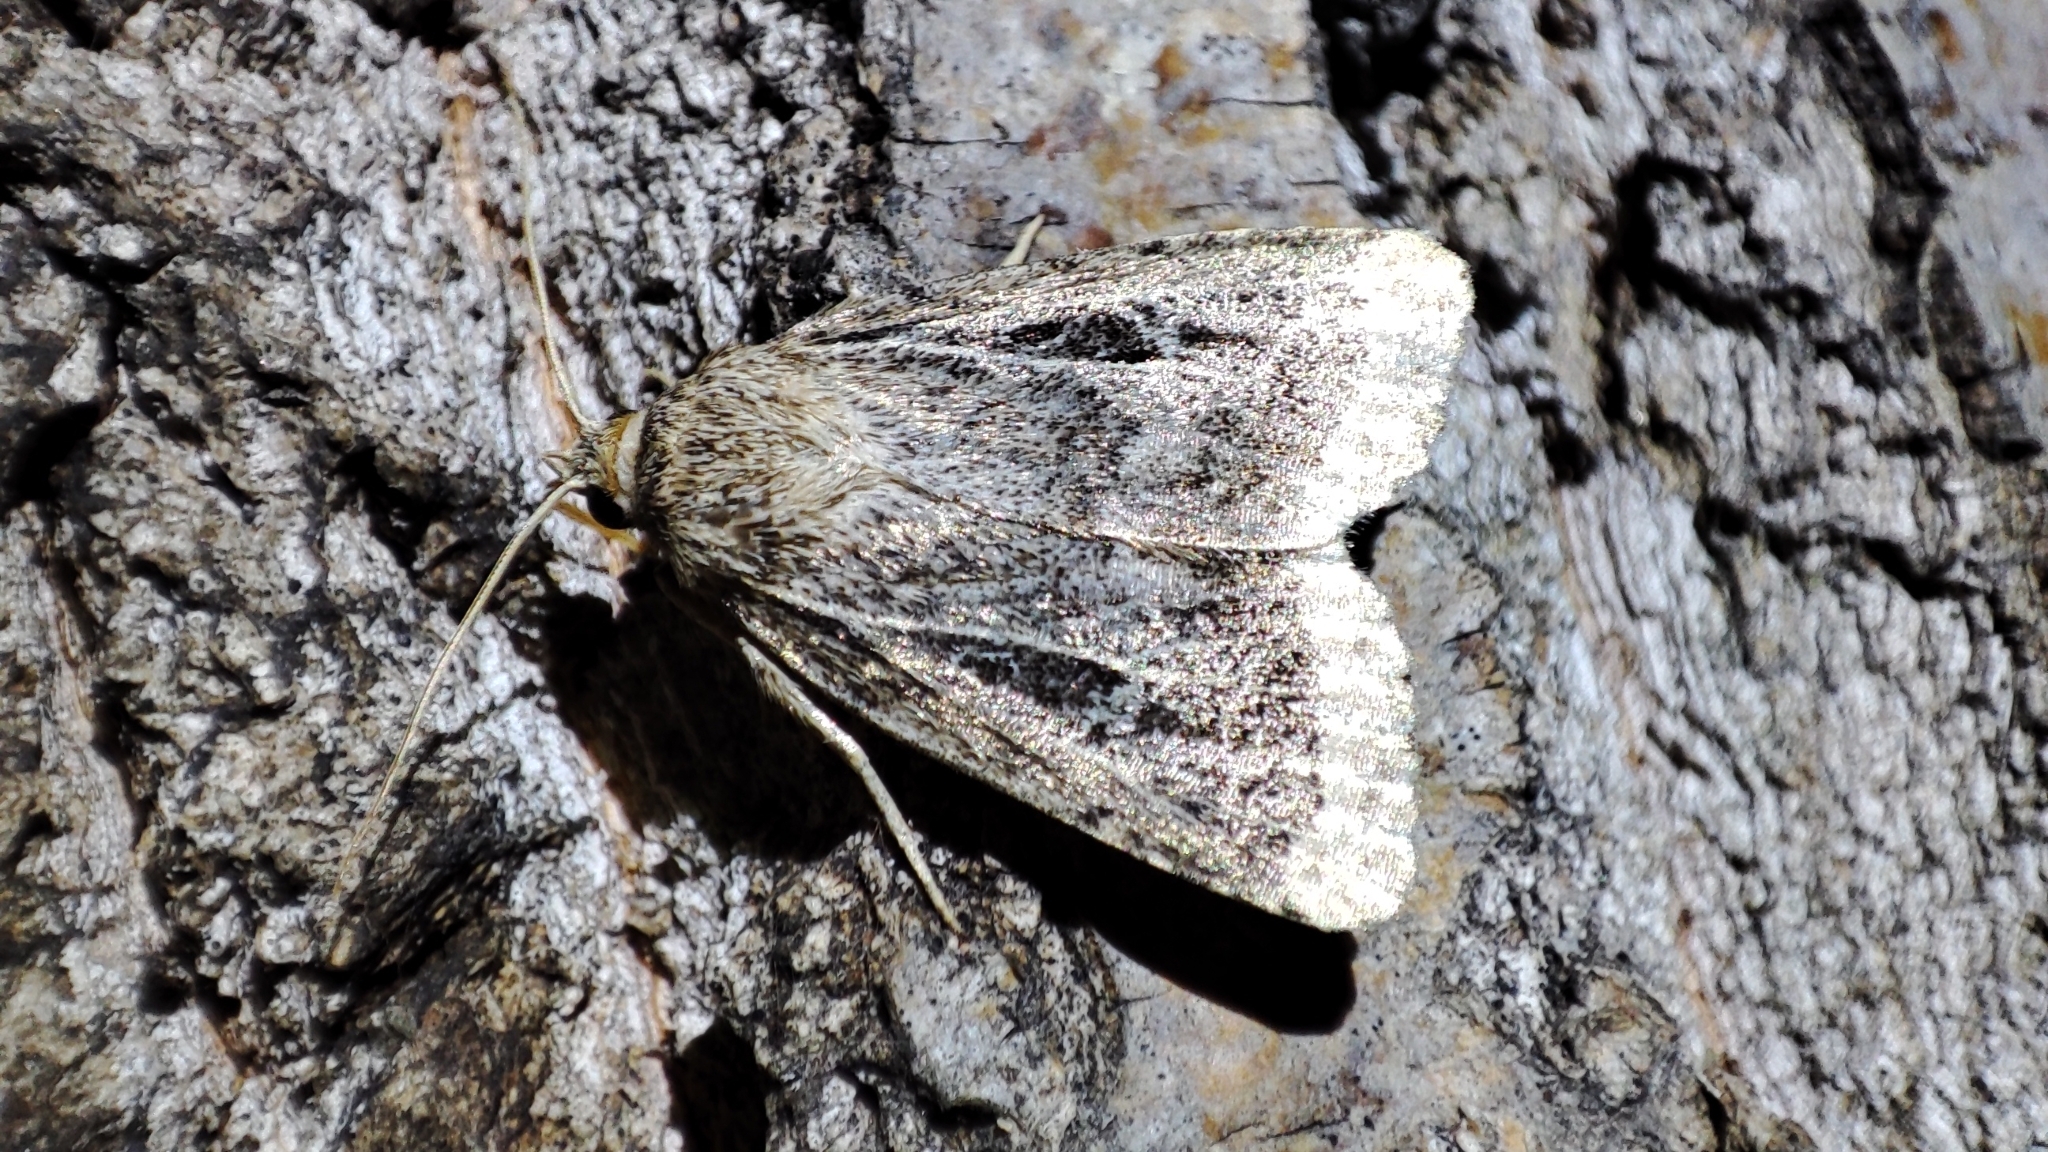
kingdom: Animalia
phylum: Arthropoda
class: Insecta
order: Lepidoptera
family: Noctuidae
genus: Amphipyra
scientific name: Amphipyra sergei
